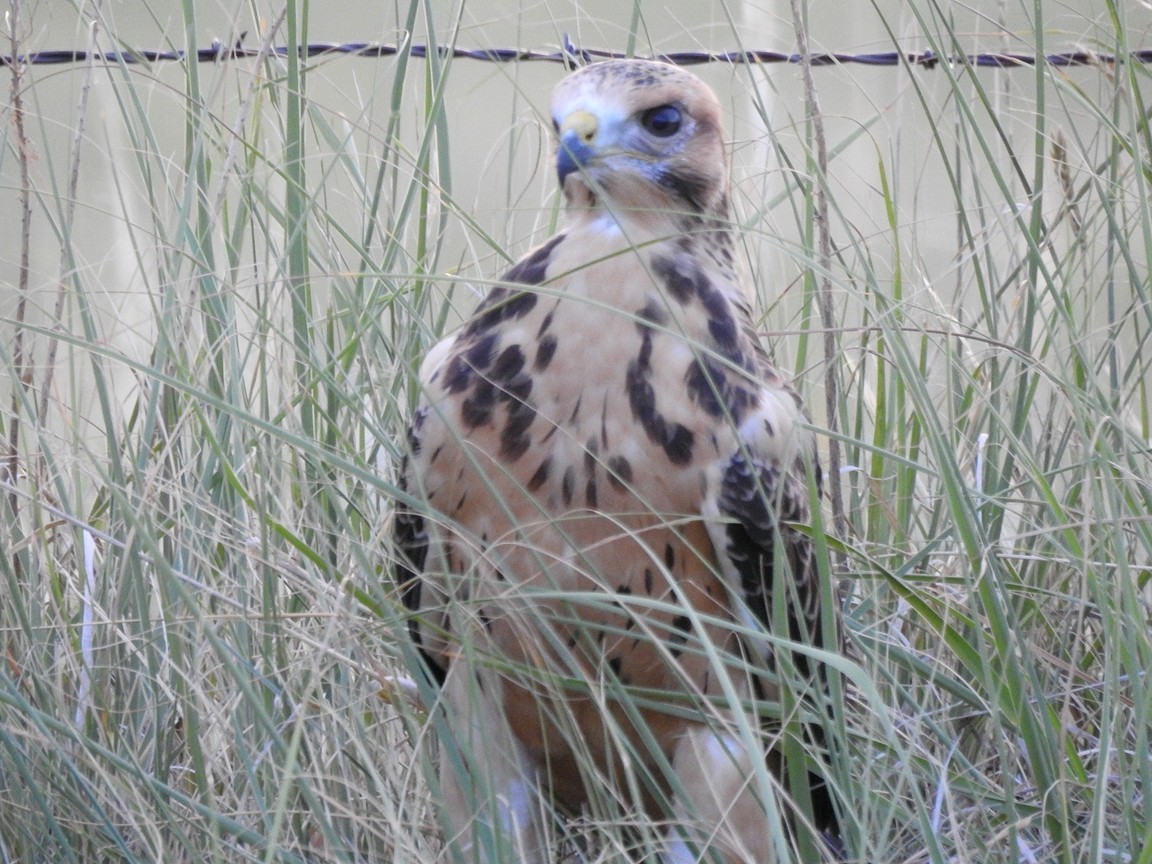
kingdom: Animalia
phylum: Chordata
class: Aves
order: Accipitriformes
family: Accipitridae
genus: Buteo
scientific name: Buteo swainsoni
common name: Swainson's hawk
